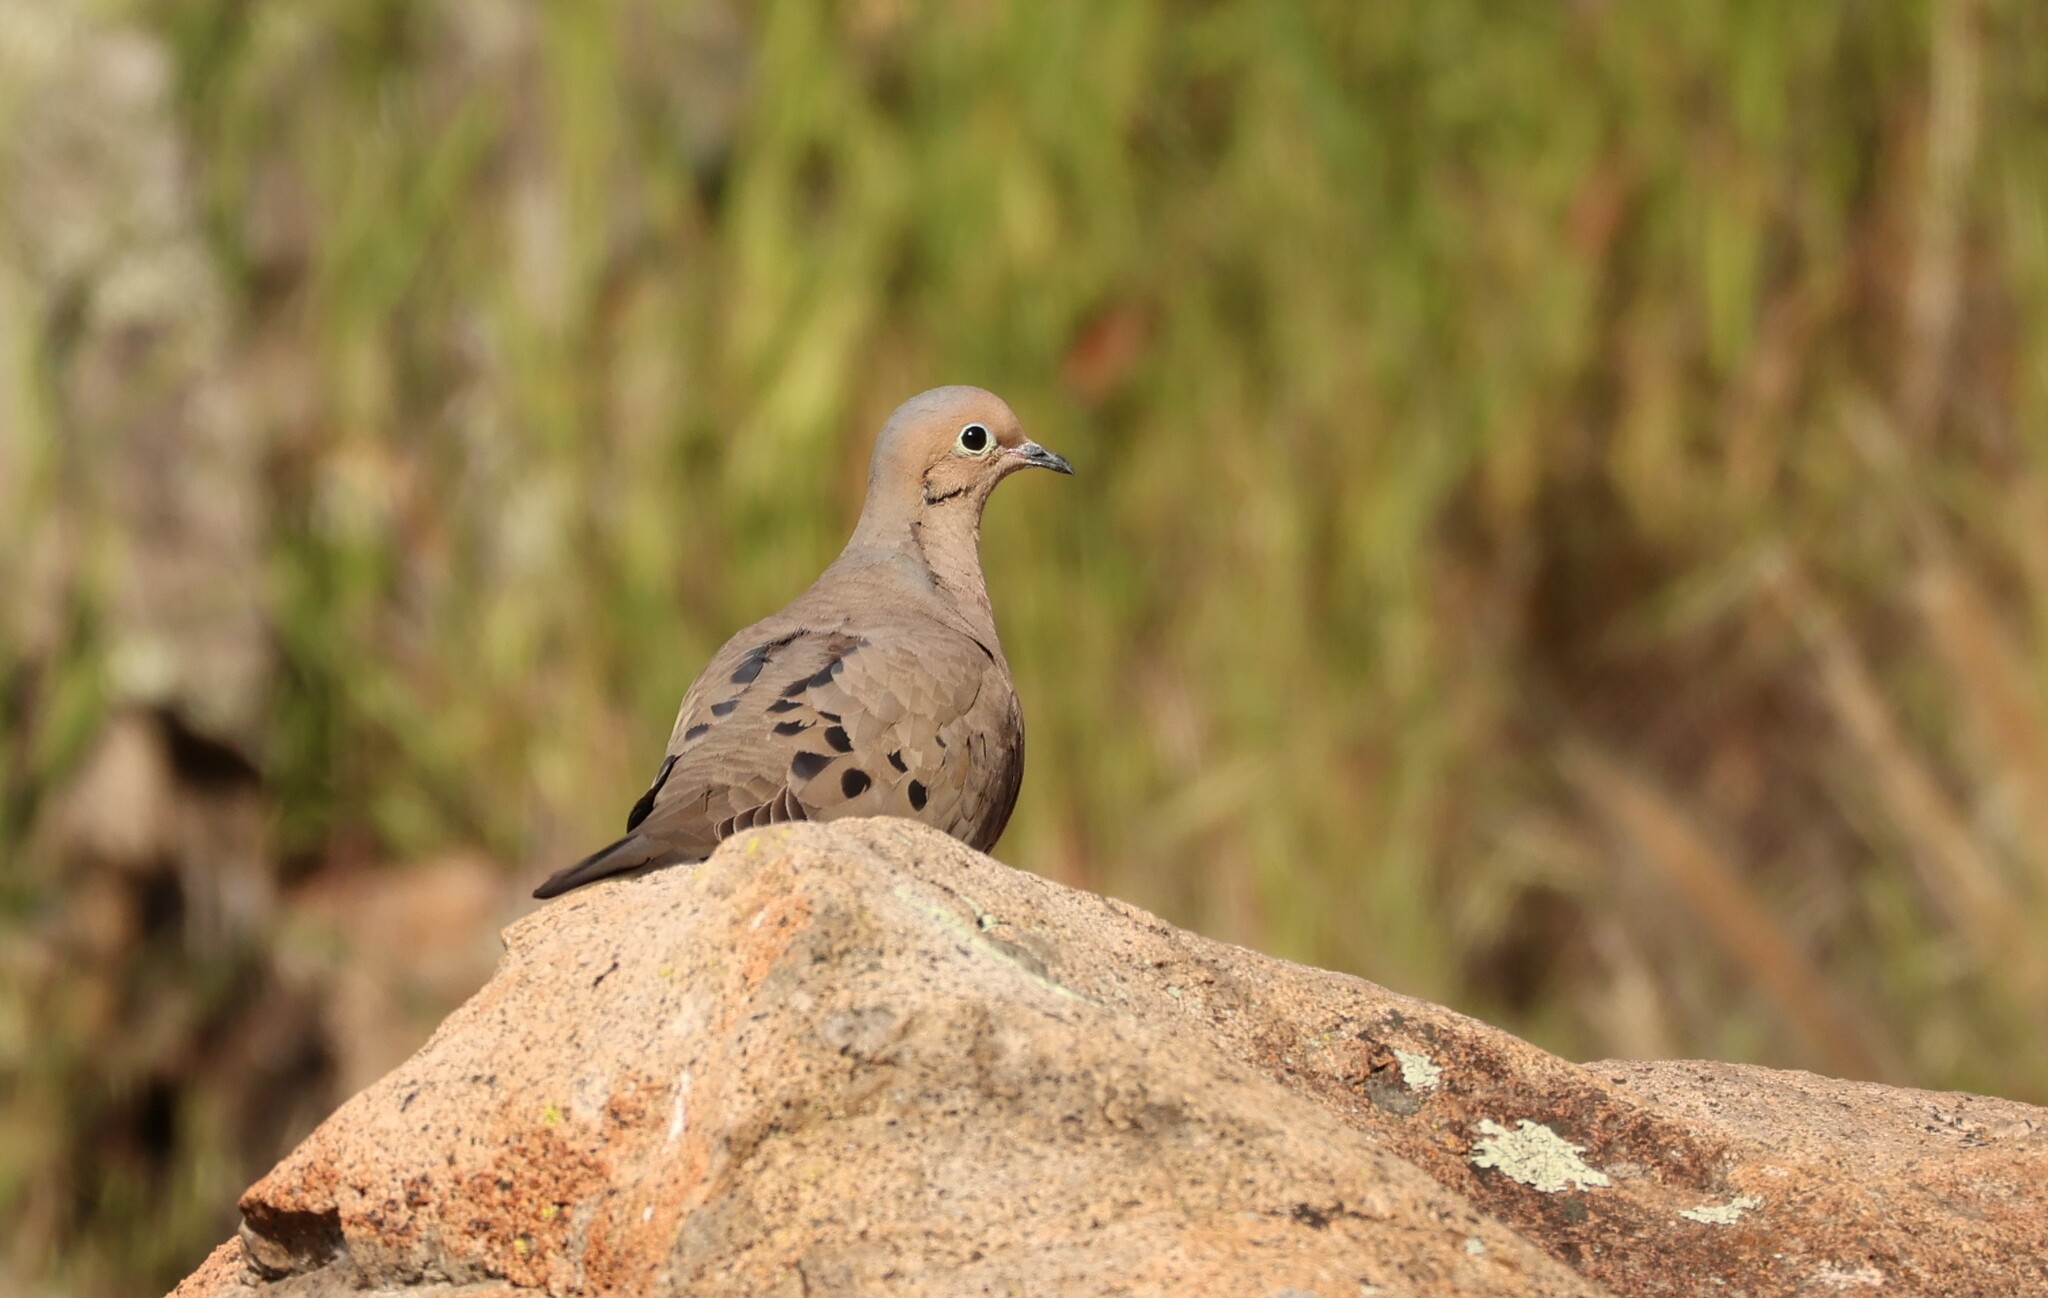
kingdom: Animalia
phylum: Chordata
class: Aves
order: Columbiformes
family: Columbidae
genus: Zenaida
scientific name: Zenaida macroura
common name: Mourning dove
